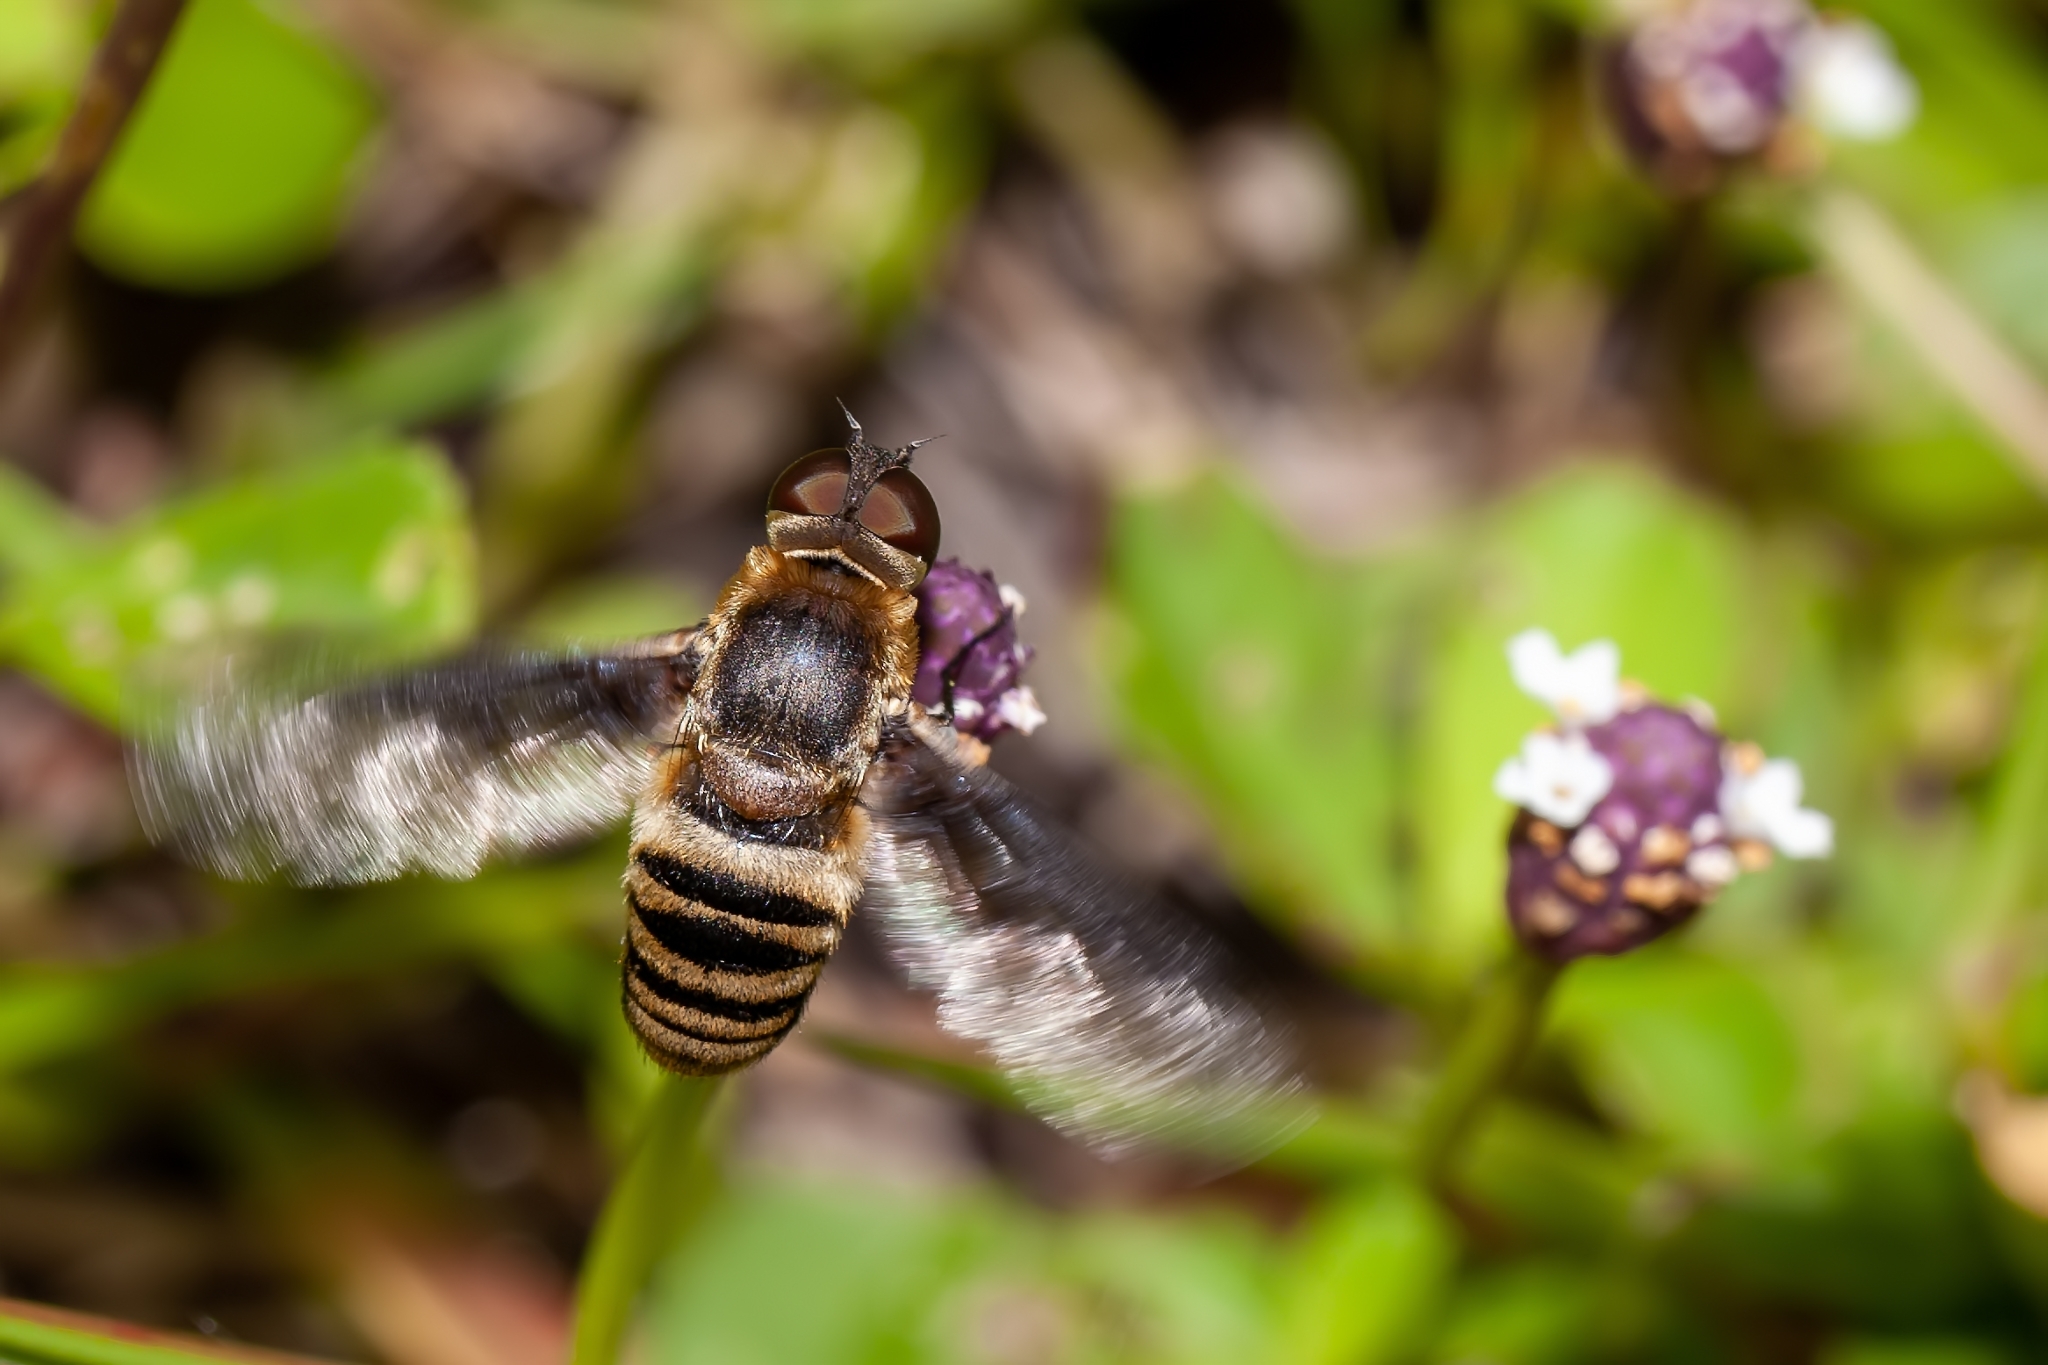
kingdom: Animalia
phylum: Arthropoda
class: Insecta
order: Diptera
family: Bombyliidae
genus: Exoprosopa
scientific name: Exoprosopa brevirostris
